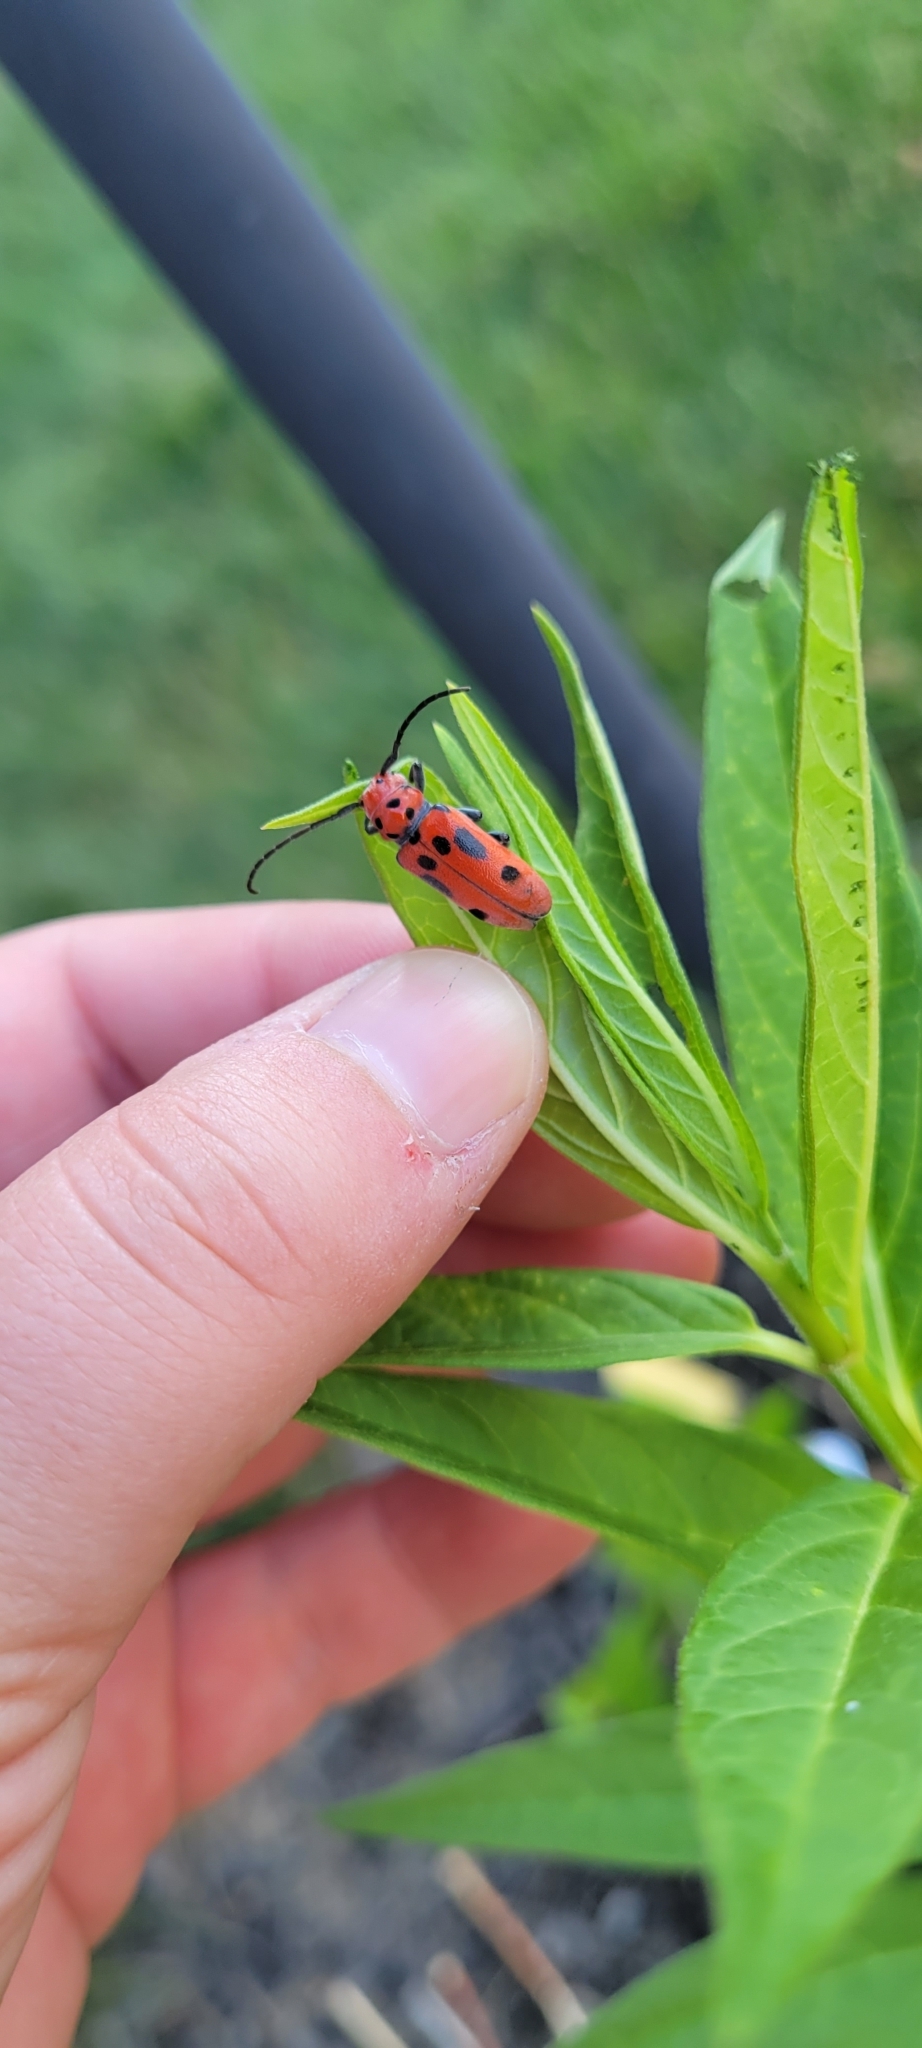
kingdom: Animalia
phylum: Arthropoda
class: Insecta
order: Coleoptera
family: Cerambycidae
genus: Tetraopes
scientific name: Tetraopes tetrophthalmus
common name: Red milkweed beetle
